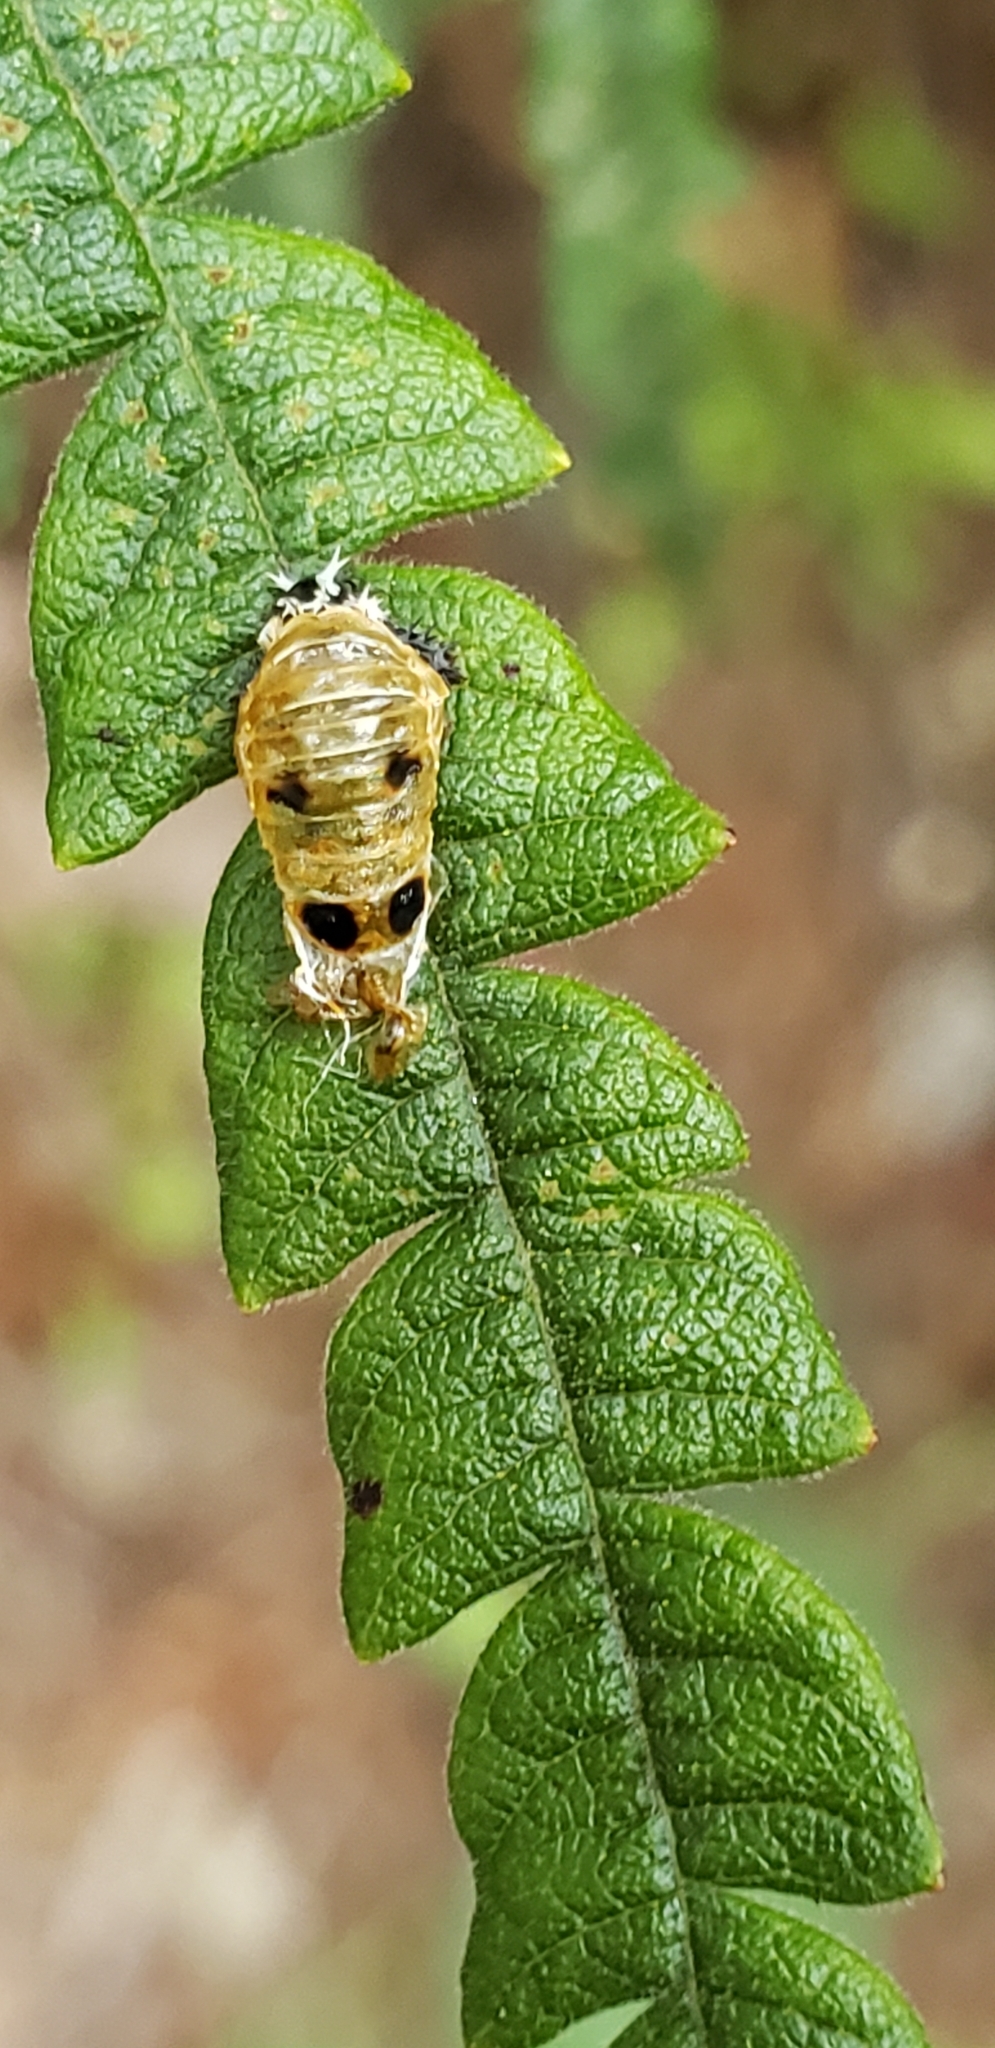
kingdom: Animalia
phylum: Arthropoda
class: Insecta
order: Coleoptera
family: Coccinellidae
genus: Harmonia
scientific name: Harmonia axyridis
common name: Harlequin ladybird
